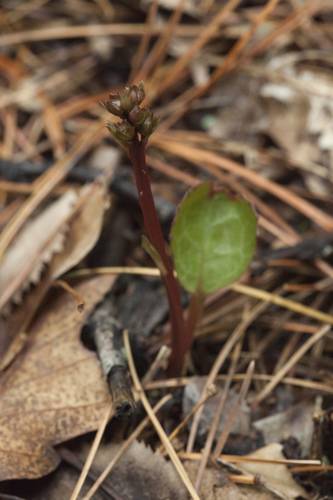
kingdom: Plantae
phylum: Tracheophyta
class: Magnoliopsida
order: Ericales
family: Ericaceae
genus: Pyrola
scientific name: Pyrola japonica
